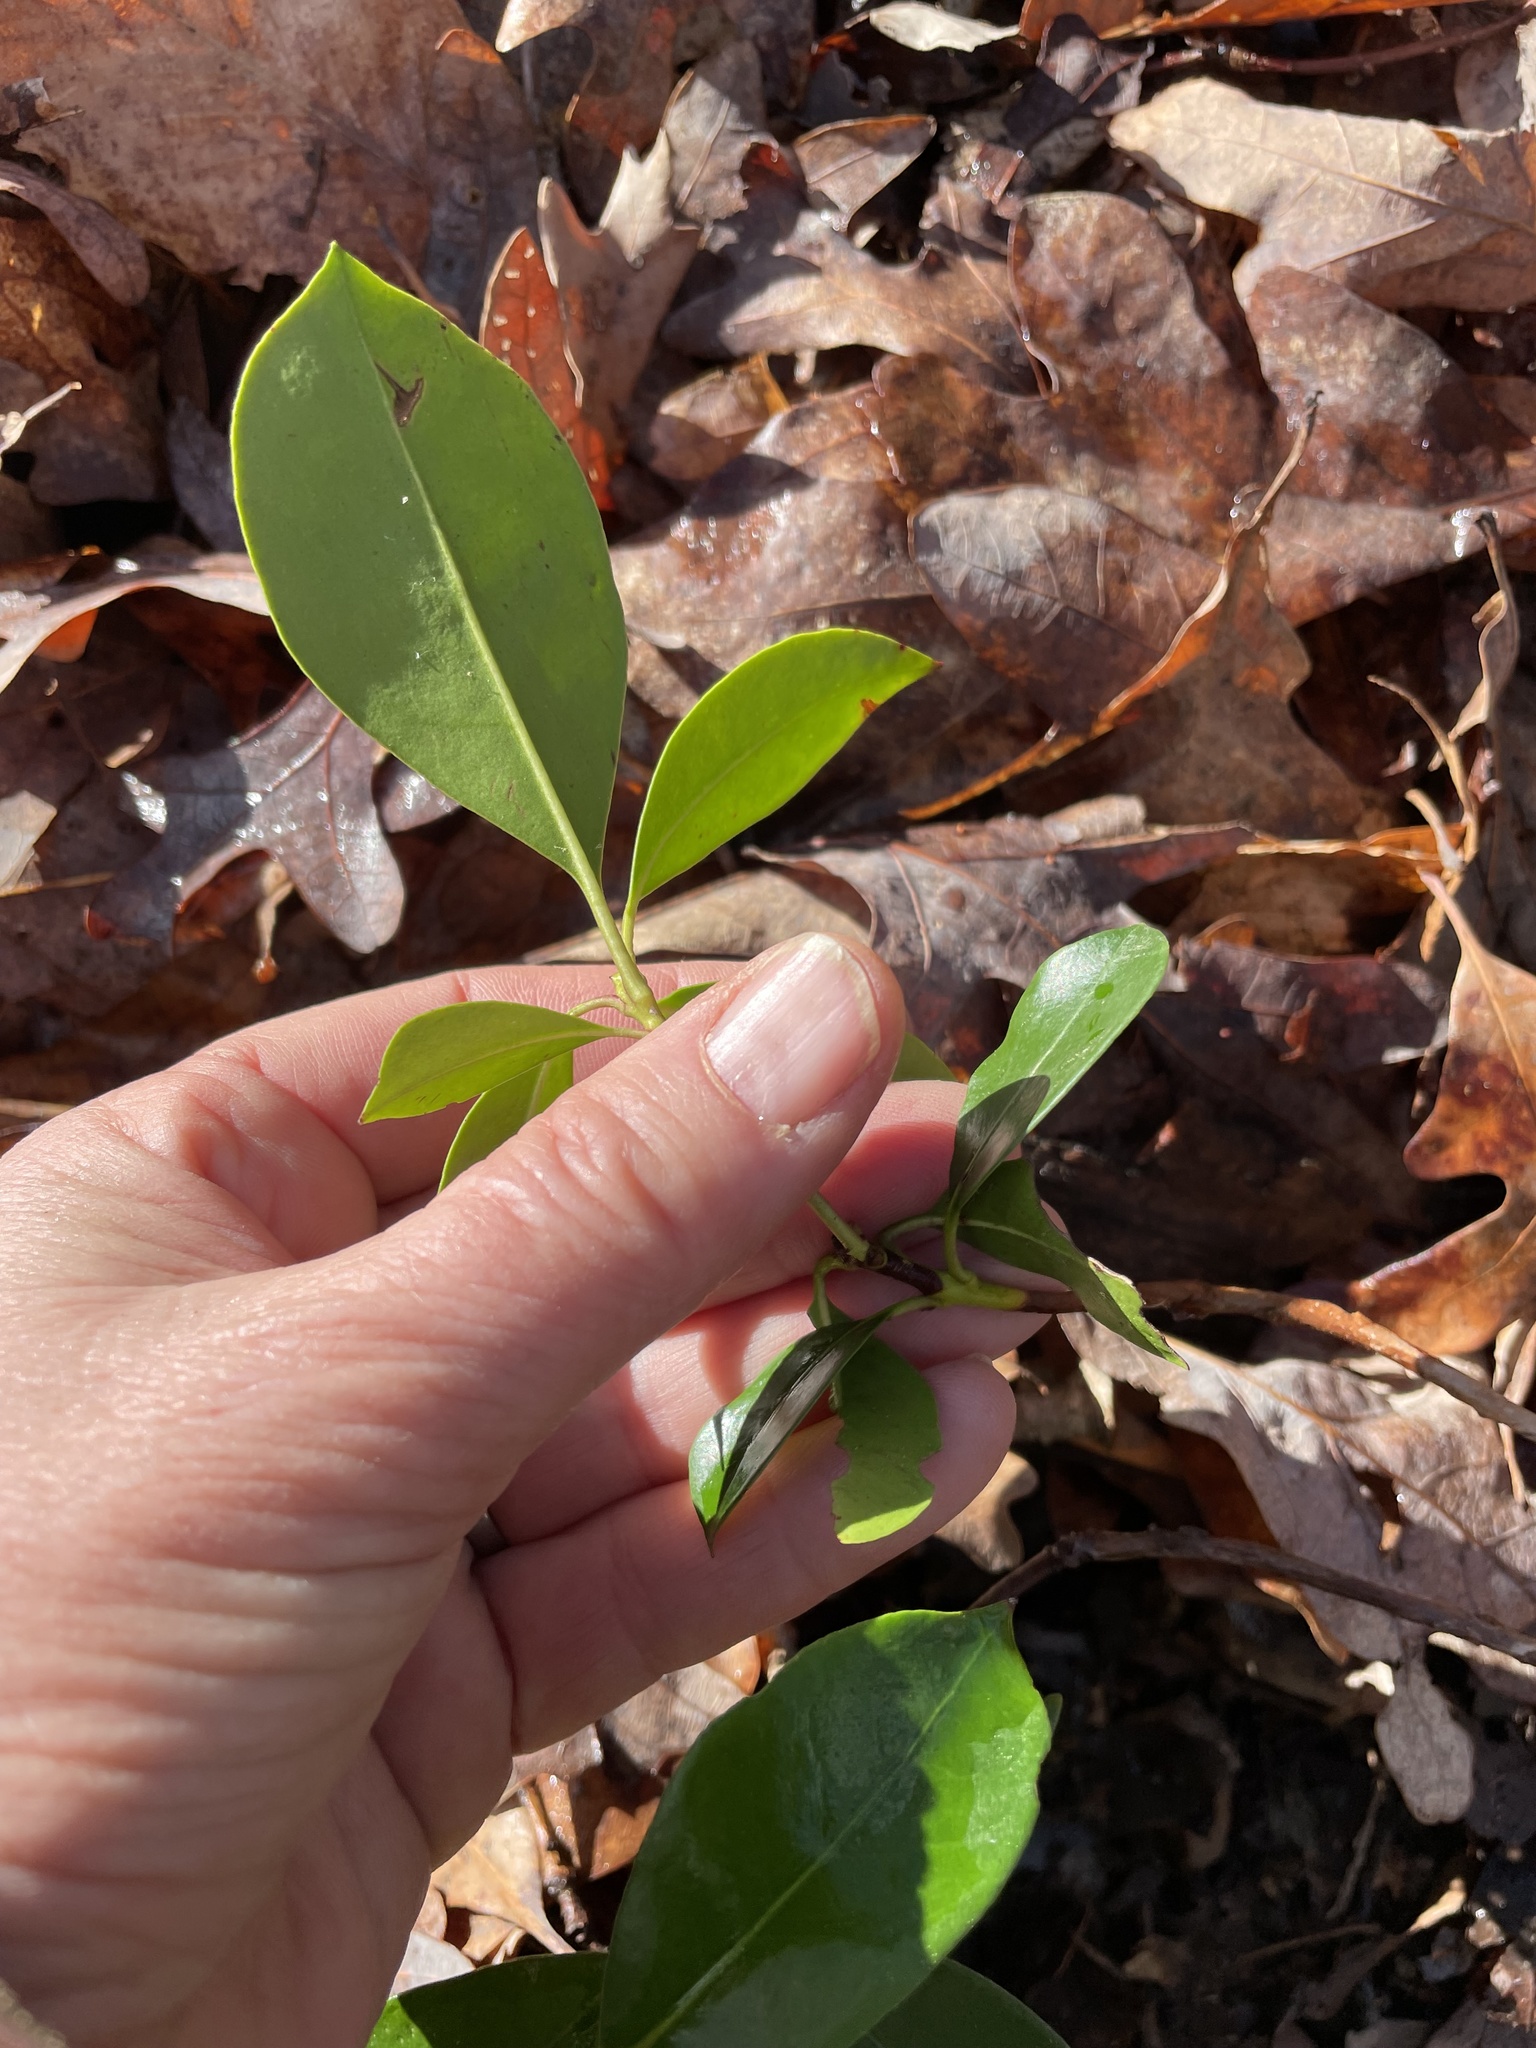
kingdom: Plantae
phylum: Tracheophyta
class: Magnoliopsida
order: Ericales
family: Ericaceae
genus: Kalmia
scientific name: Kalmia latifolia
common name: Mountain-laurel
